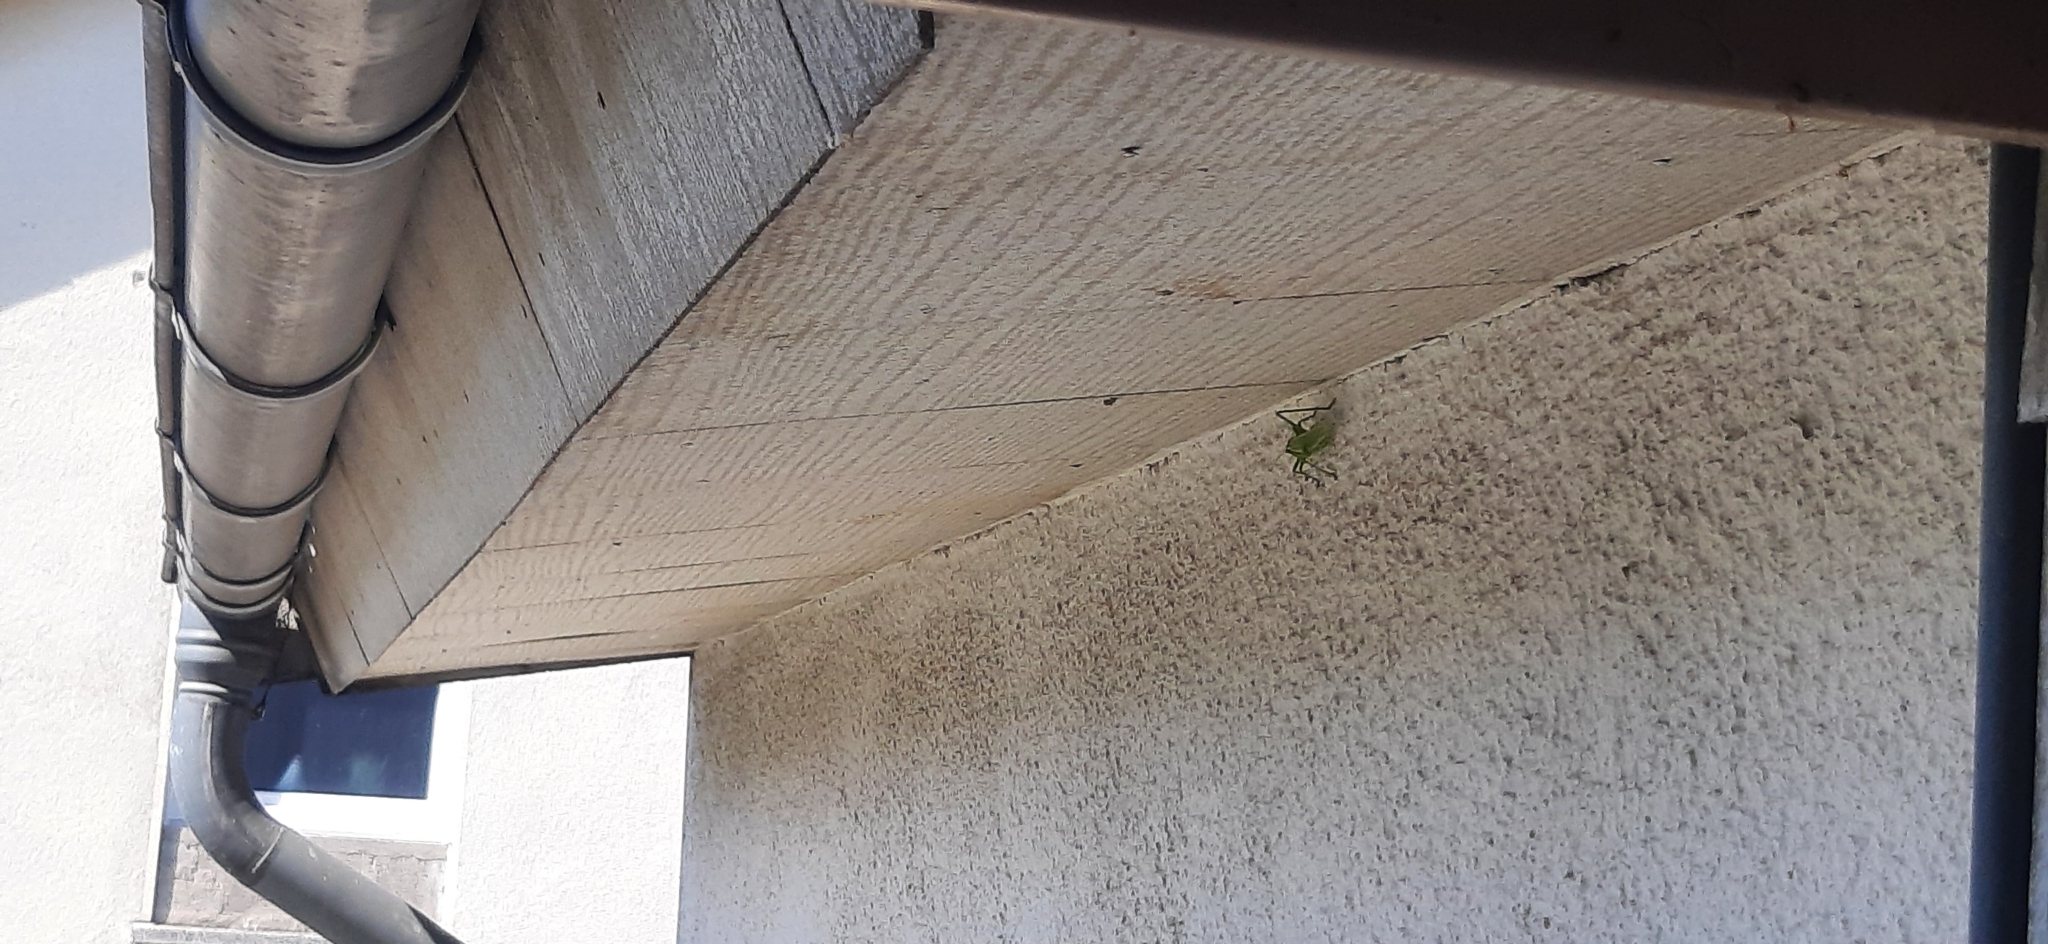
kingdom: Animalia
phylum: Arthropoda
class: Insecta
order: Orthoptera
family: Tettigoniidae
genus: Tettigonia
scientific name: Tettigonia viridissima
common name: Great green bush-cricket
